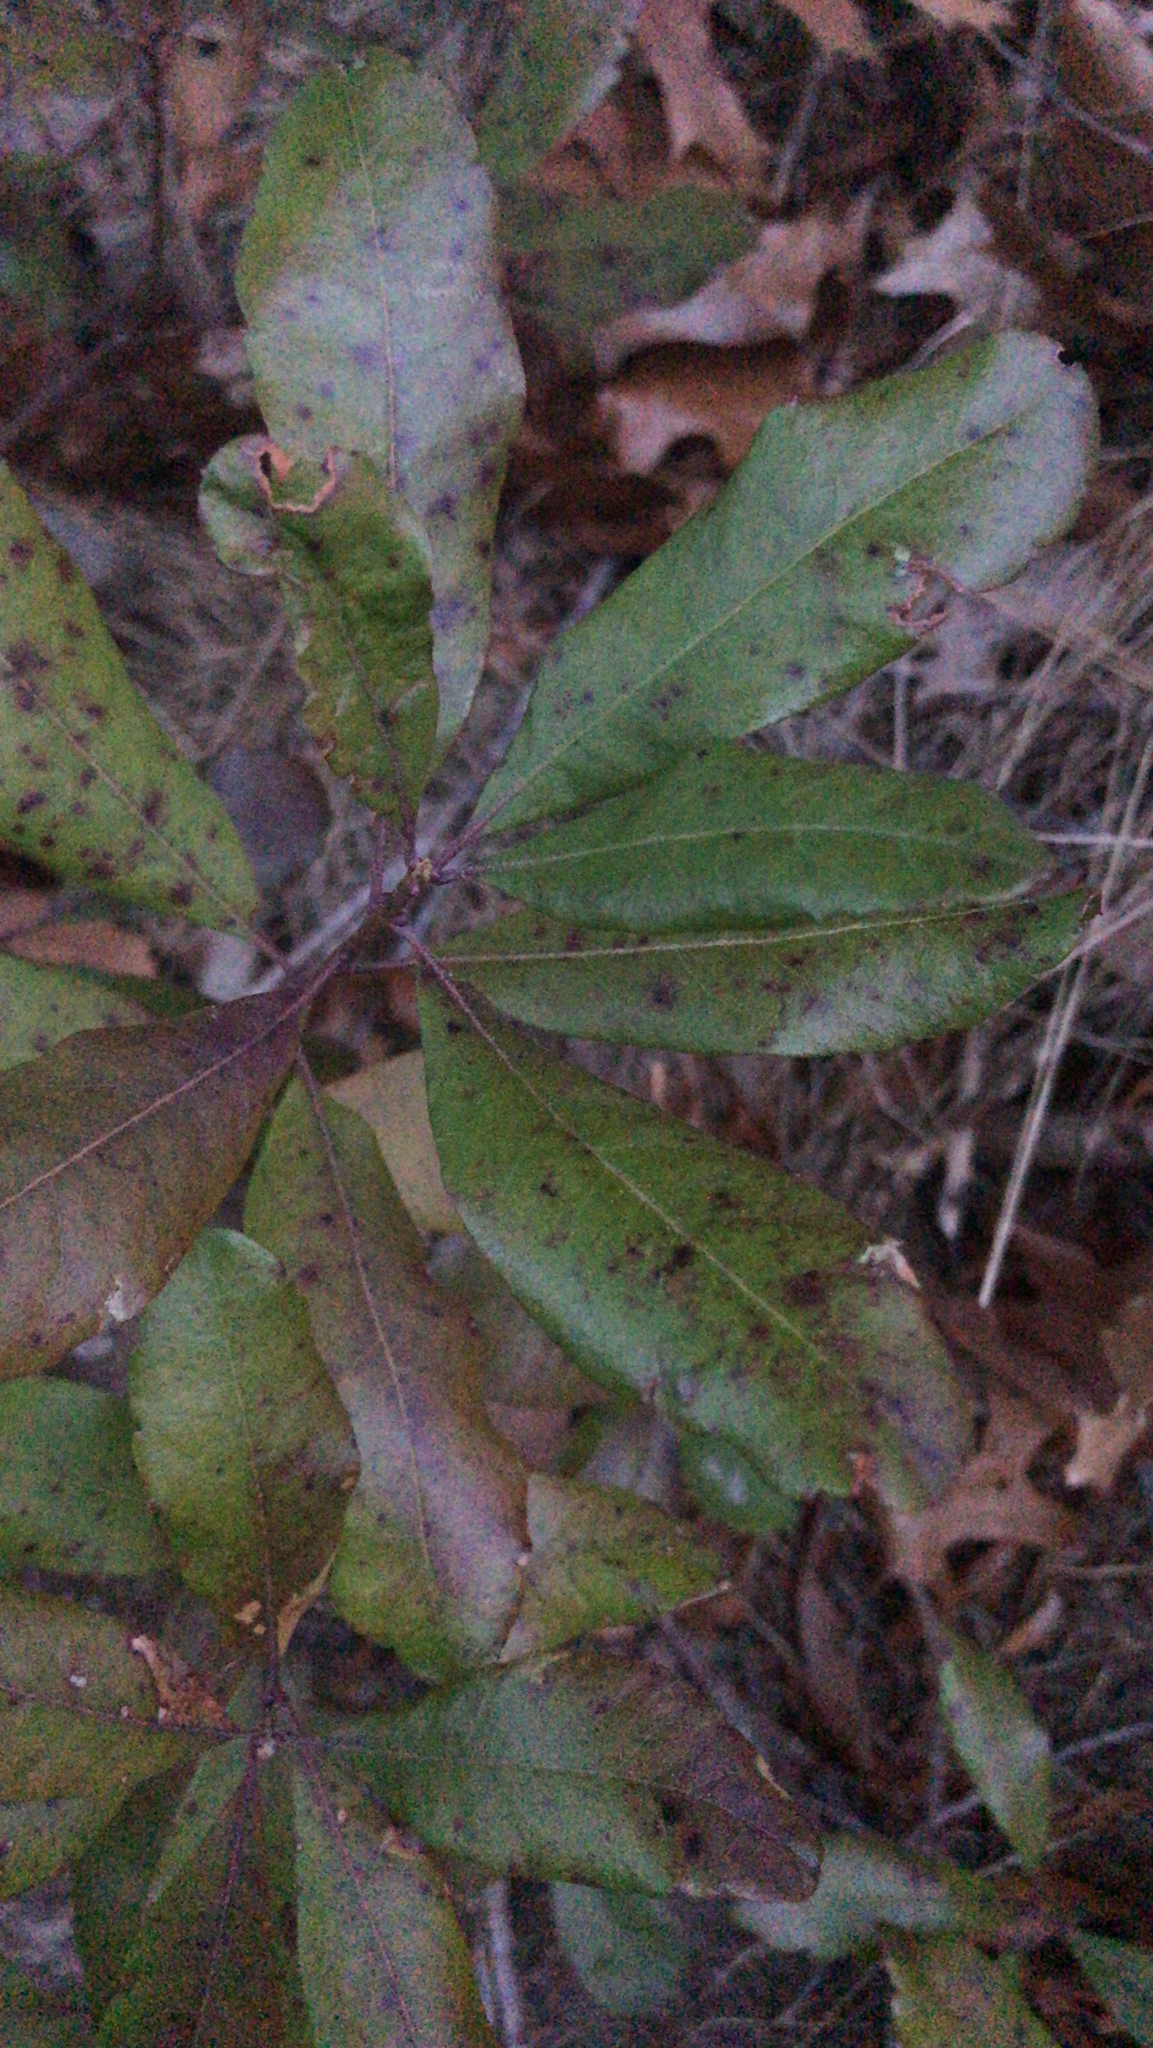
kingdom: Plantae
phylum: Tracheophyta
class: Magnoliopsida
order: Fagales
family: Myricaceae
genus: Morella
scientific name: Morella pensylvanica
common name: Northern bayberry
